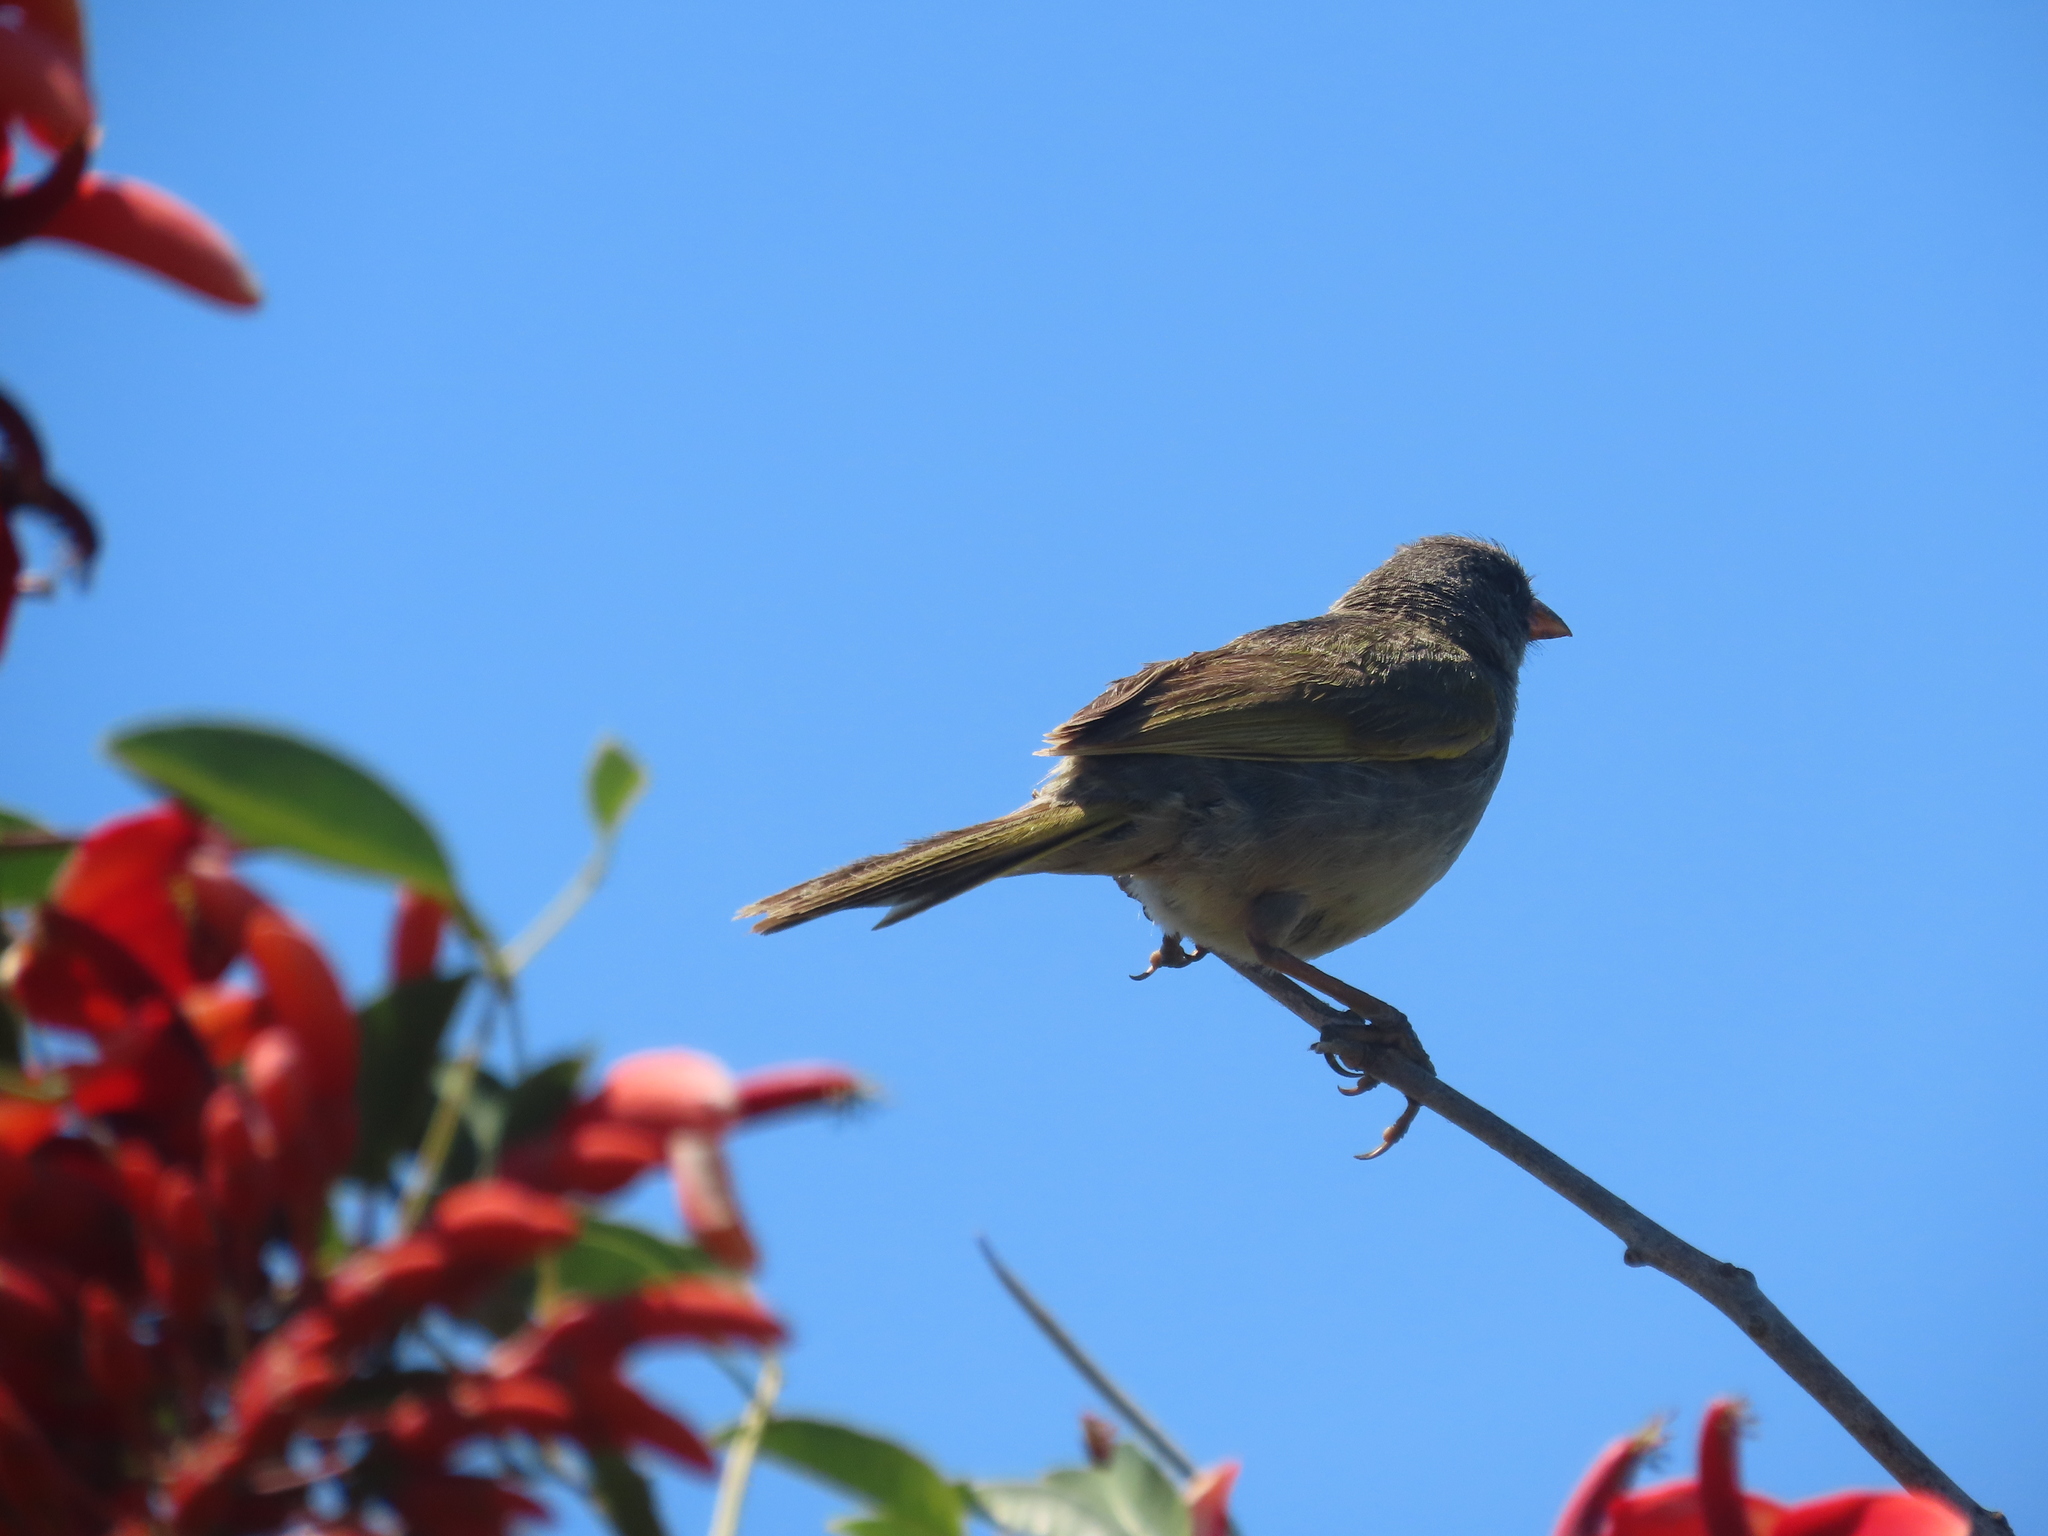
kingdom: Animalia
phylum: Chordata
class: Aves
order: Passeriformes
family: Thraupidae
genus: Embernagra
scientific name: Embernagra platensis
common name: Pampa finch
